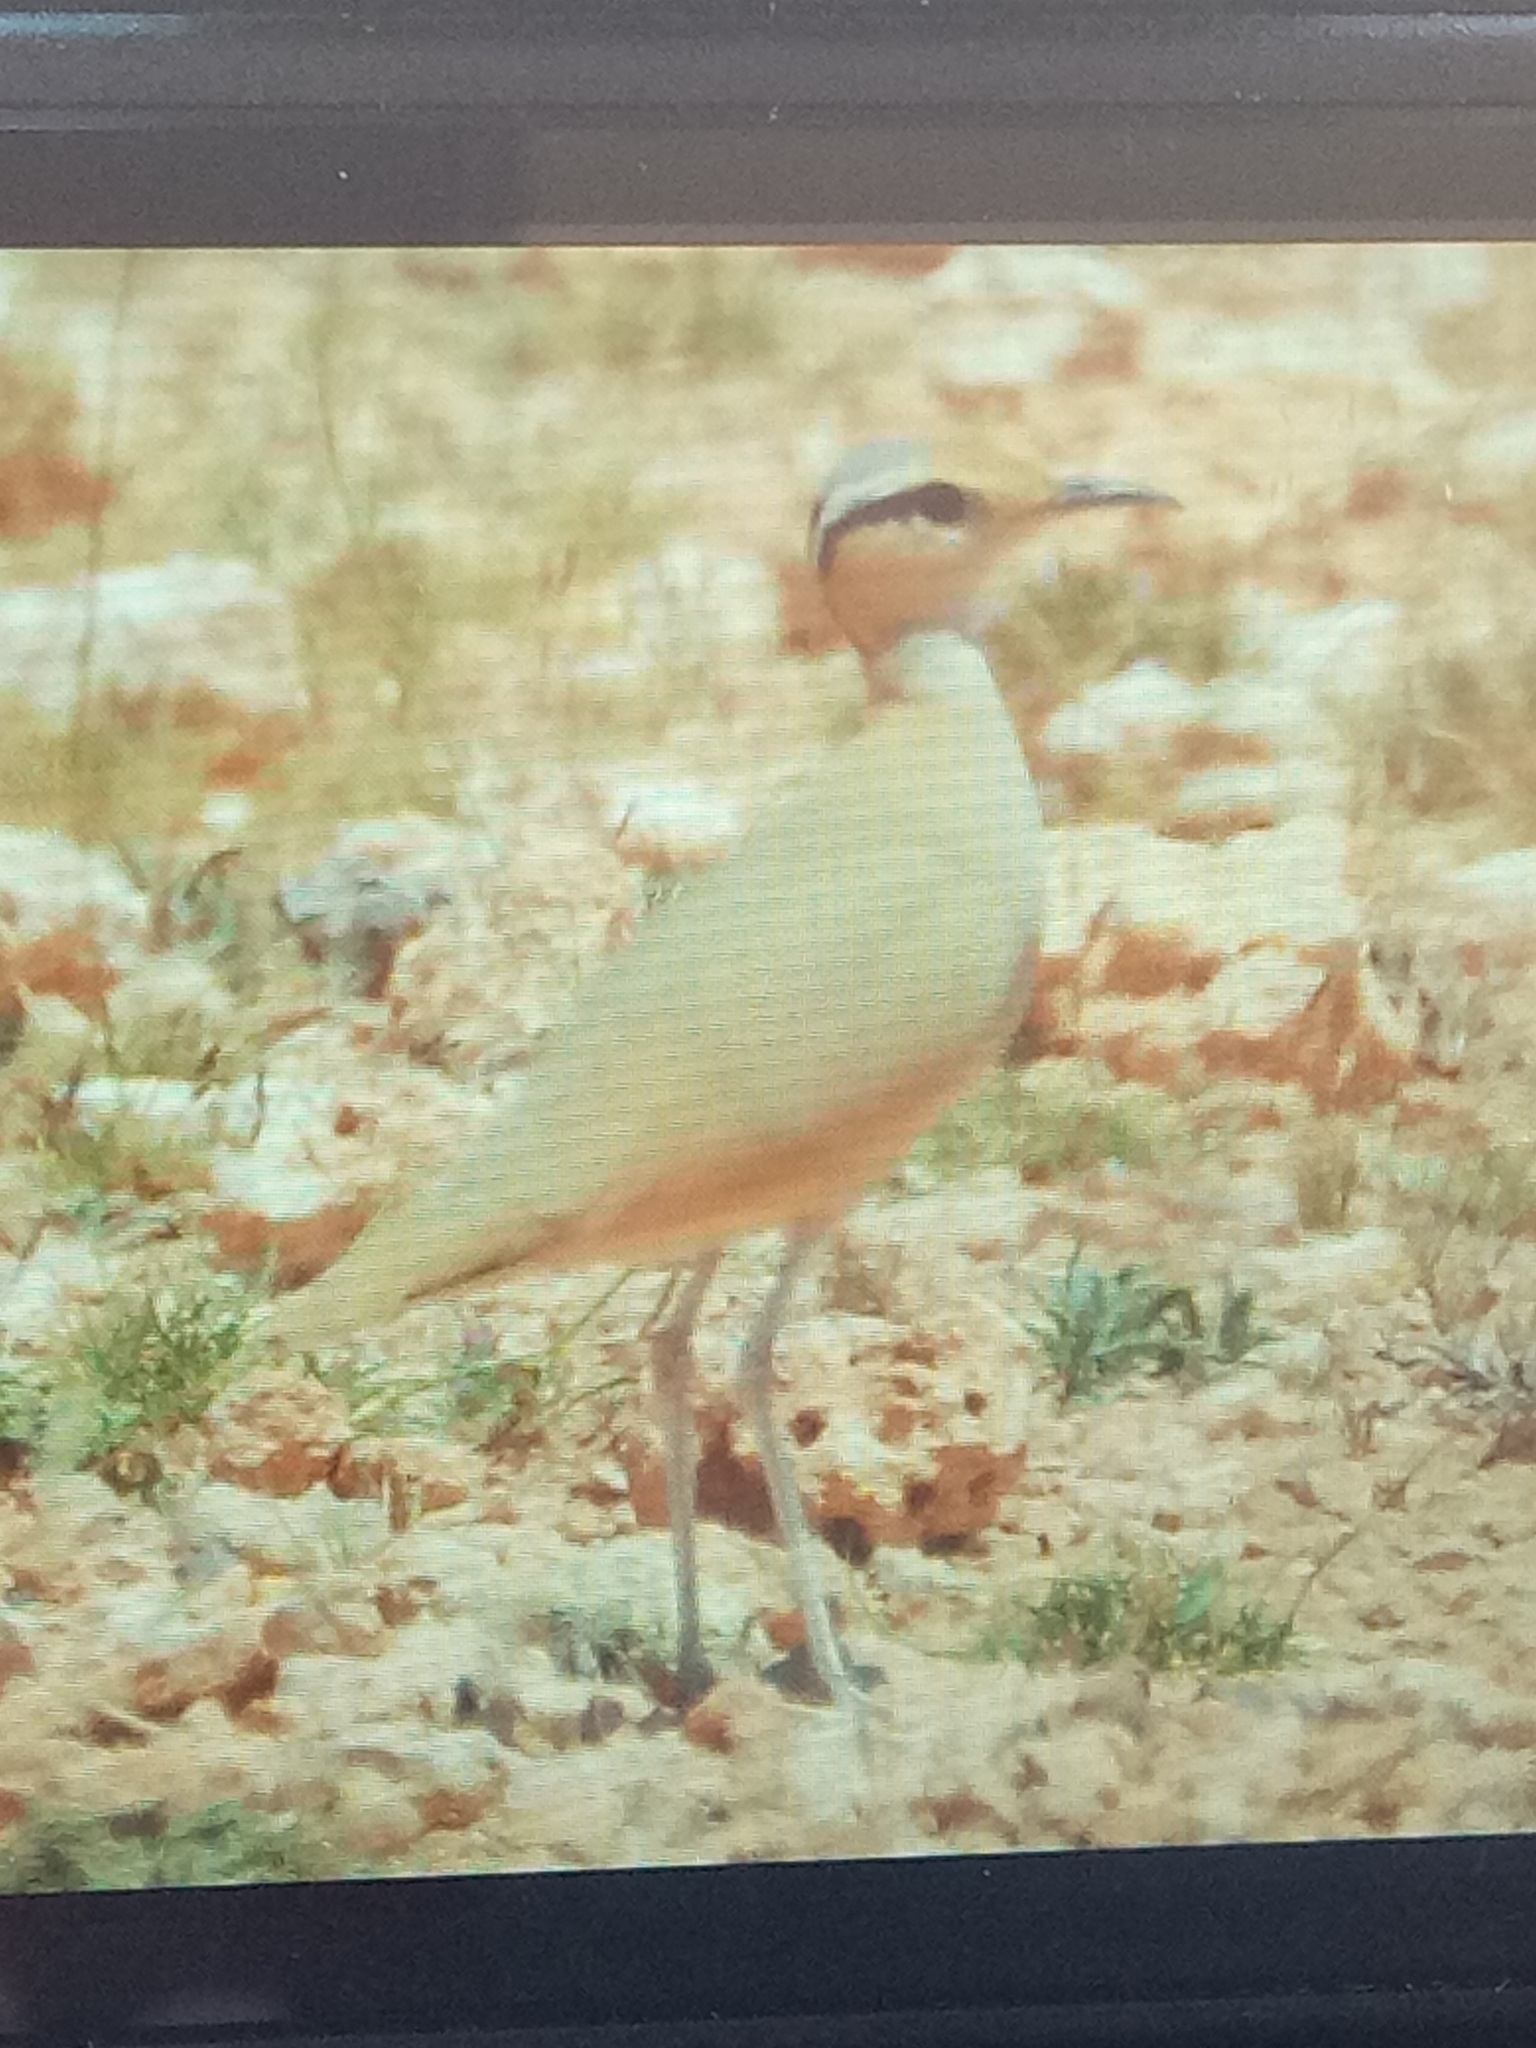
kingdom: Animalia
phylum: Chordata
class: Aves
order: Charadriiformes
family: Glareolidae
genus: Cursorius
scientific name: Cursorius cursor
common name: Cream-colored courser
